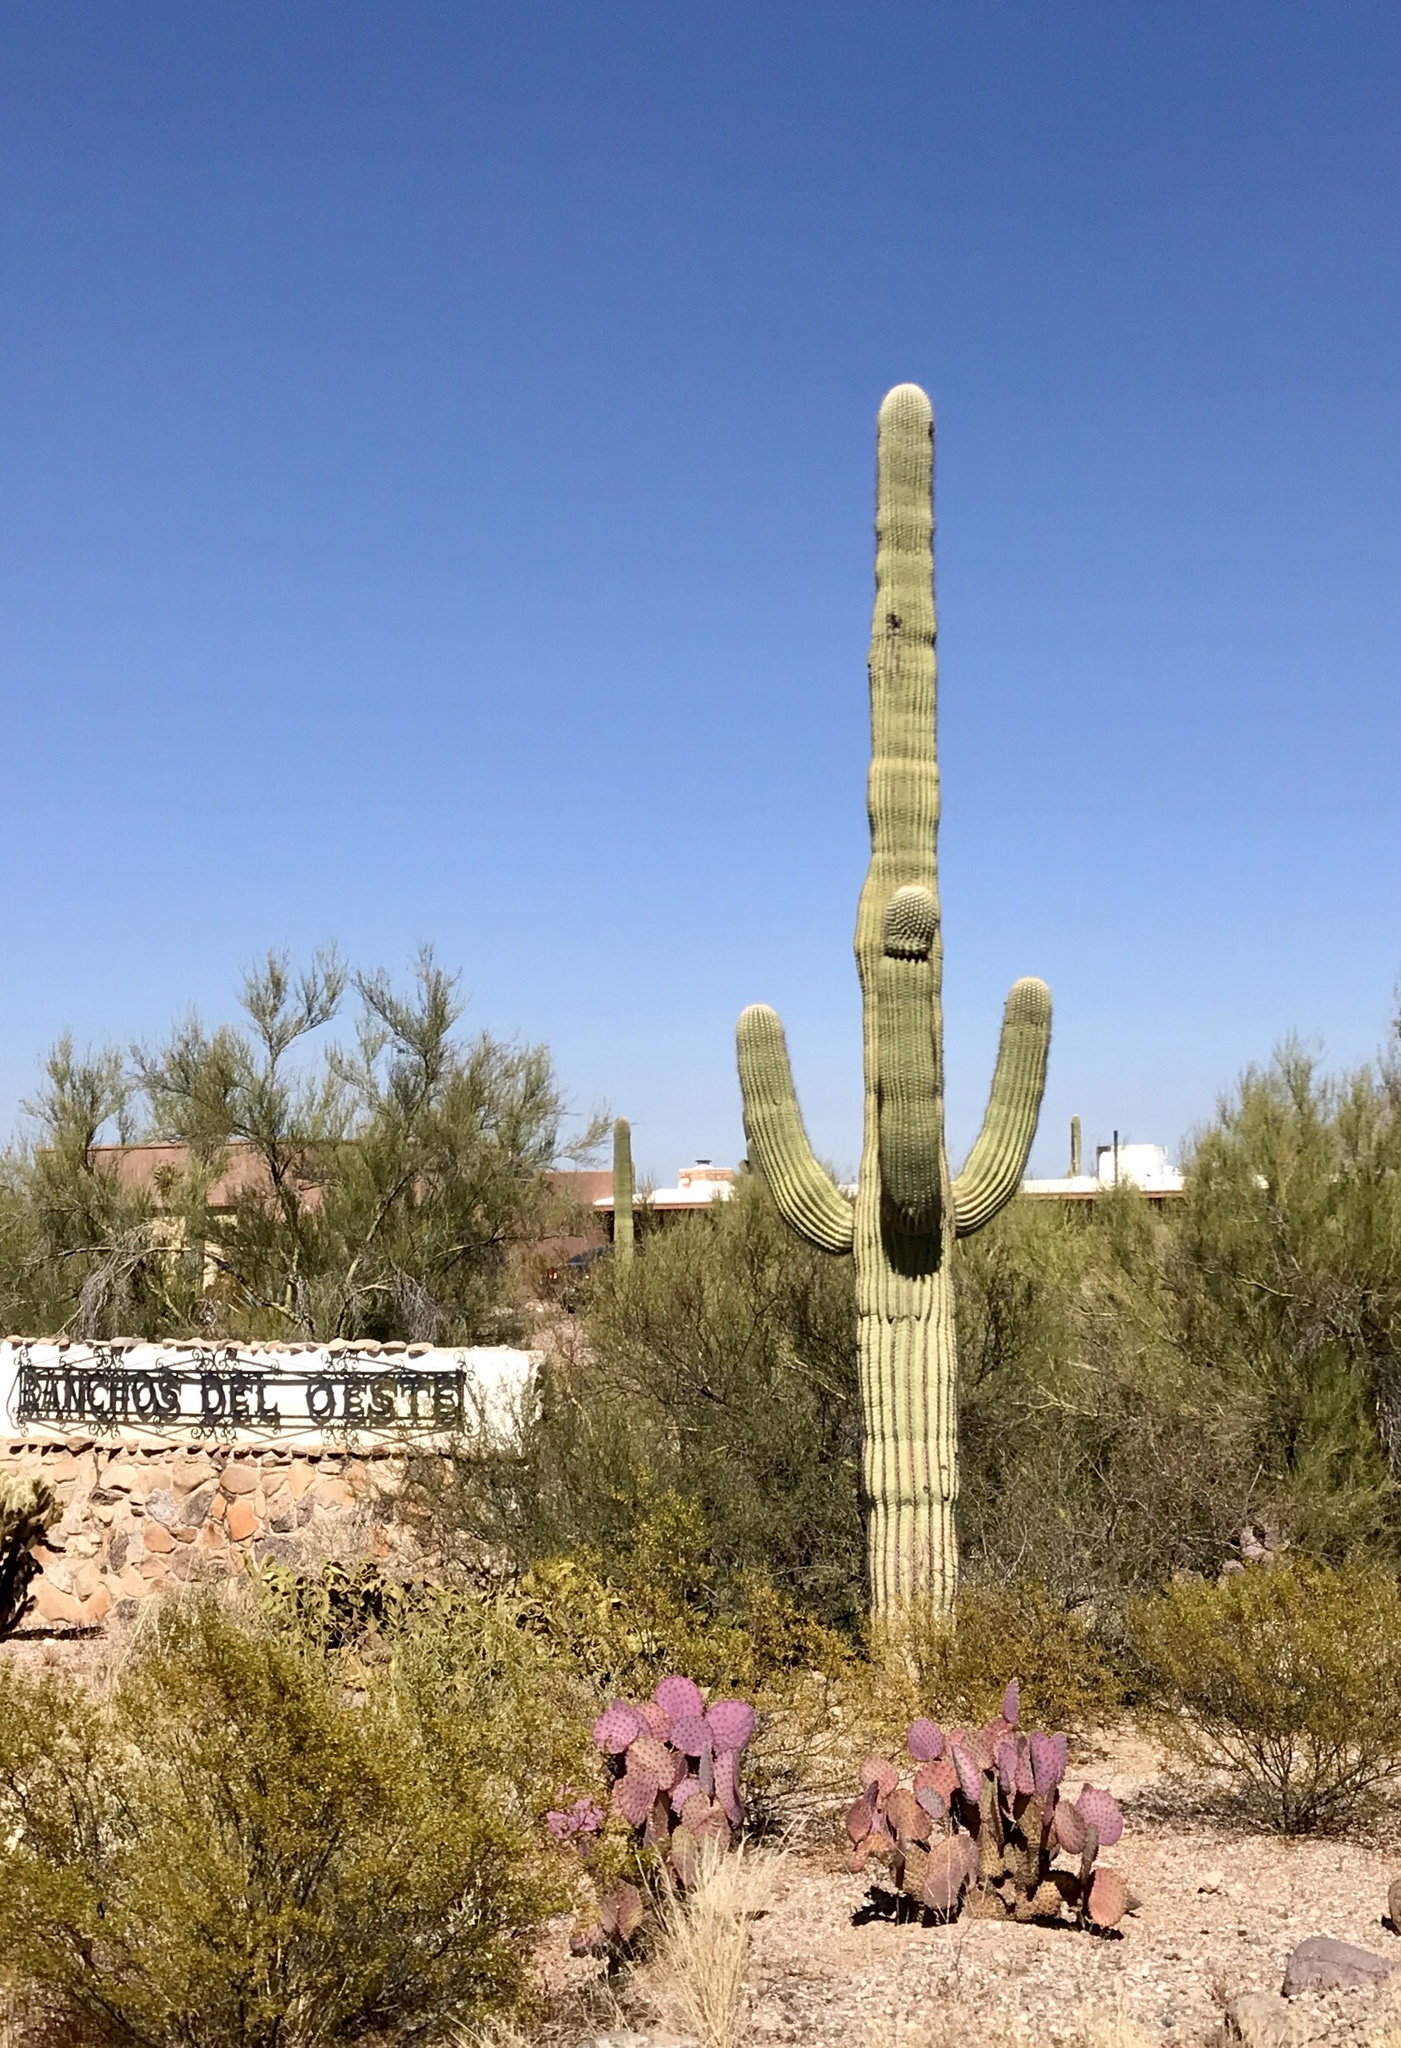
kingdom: Plantae
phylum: Tracheophyta
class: Magnoliopsida
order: Caryophyllales
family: Cactaceae
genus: Carnegiea
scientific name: Carnegiea gigantea
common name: Saguaro
